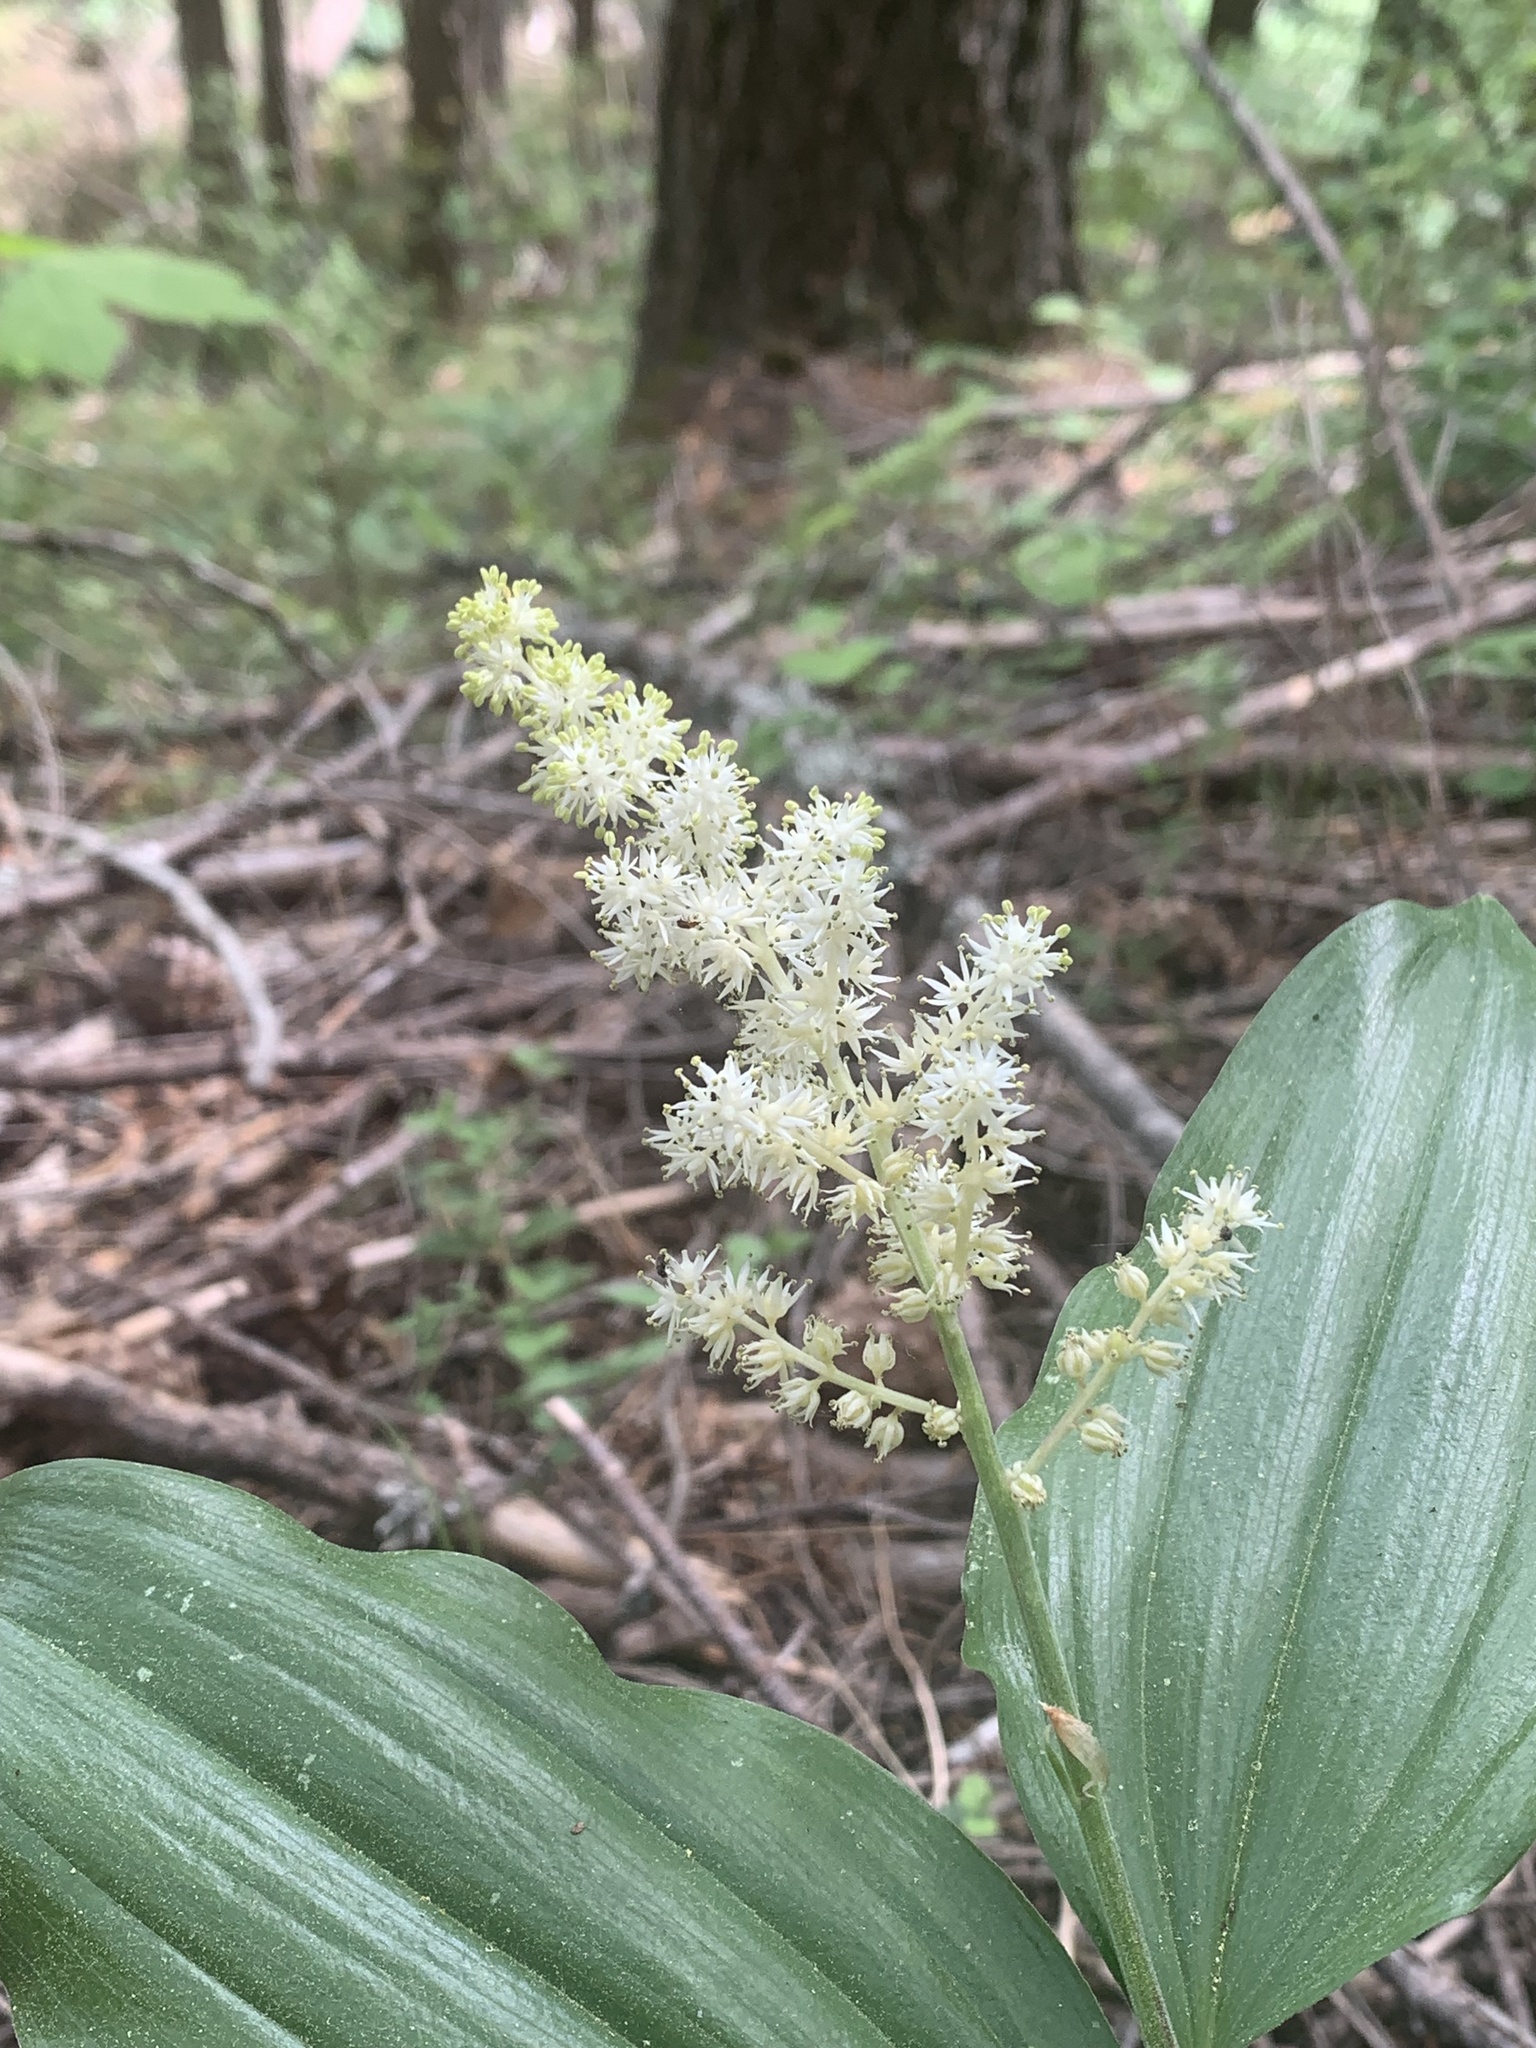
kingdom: Plantae
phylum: Tracheophyta
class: Liliopsida
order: Asparagales
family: Asparagaceae
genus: Maianthemum
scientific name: Maianthemum racemosum
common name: False spikenard
